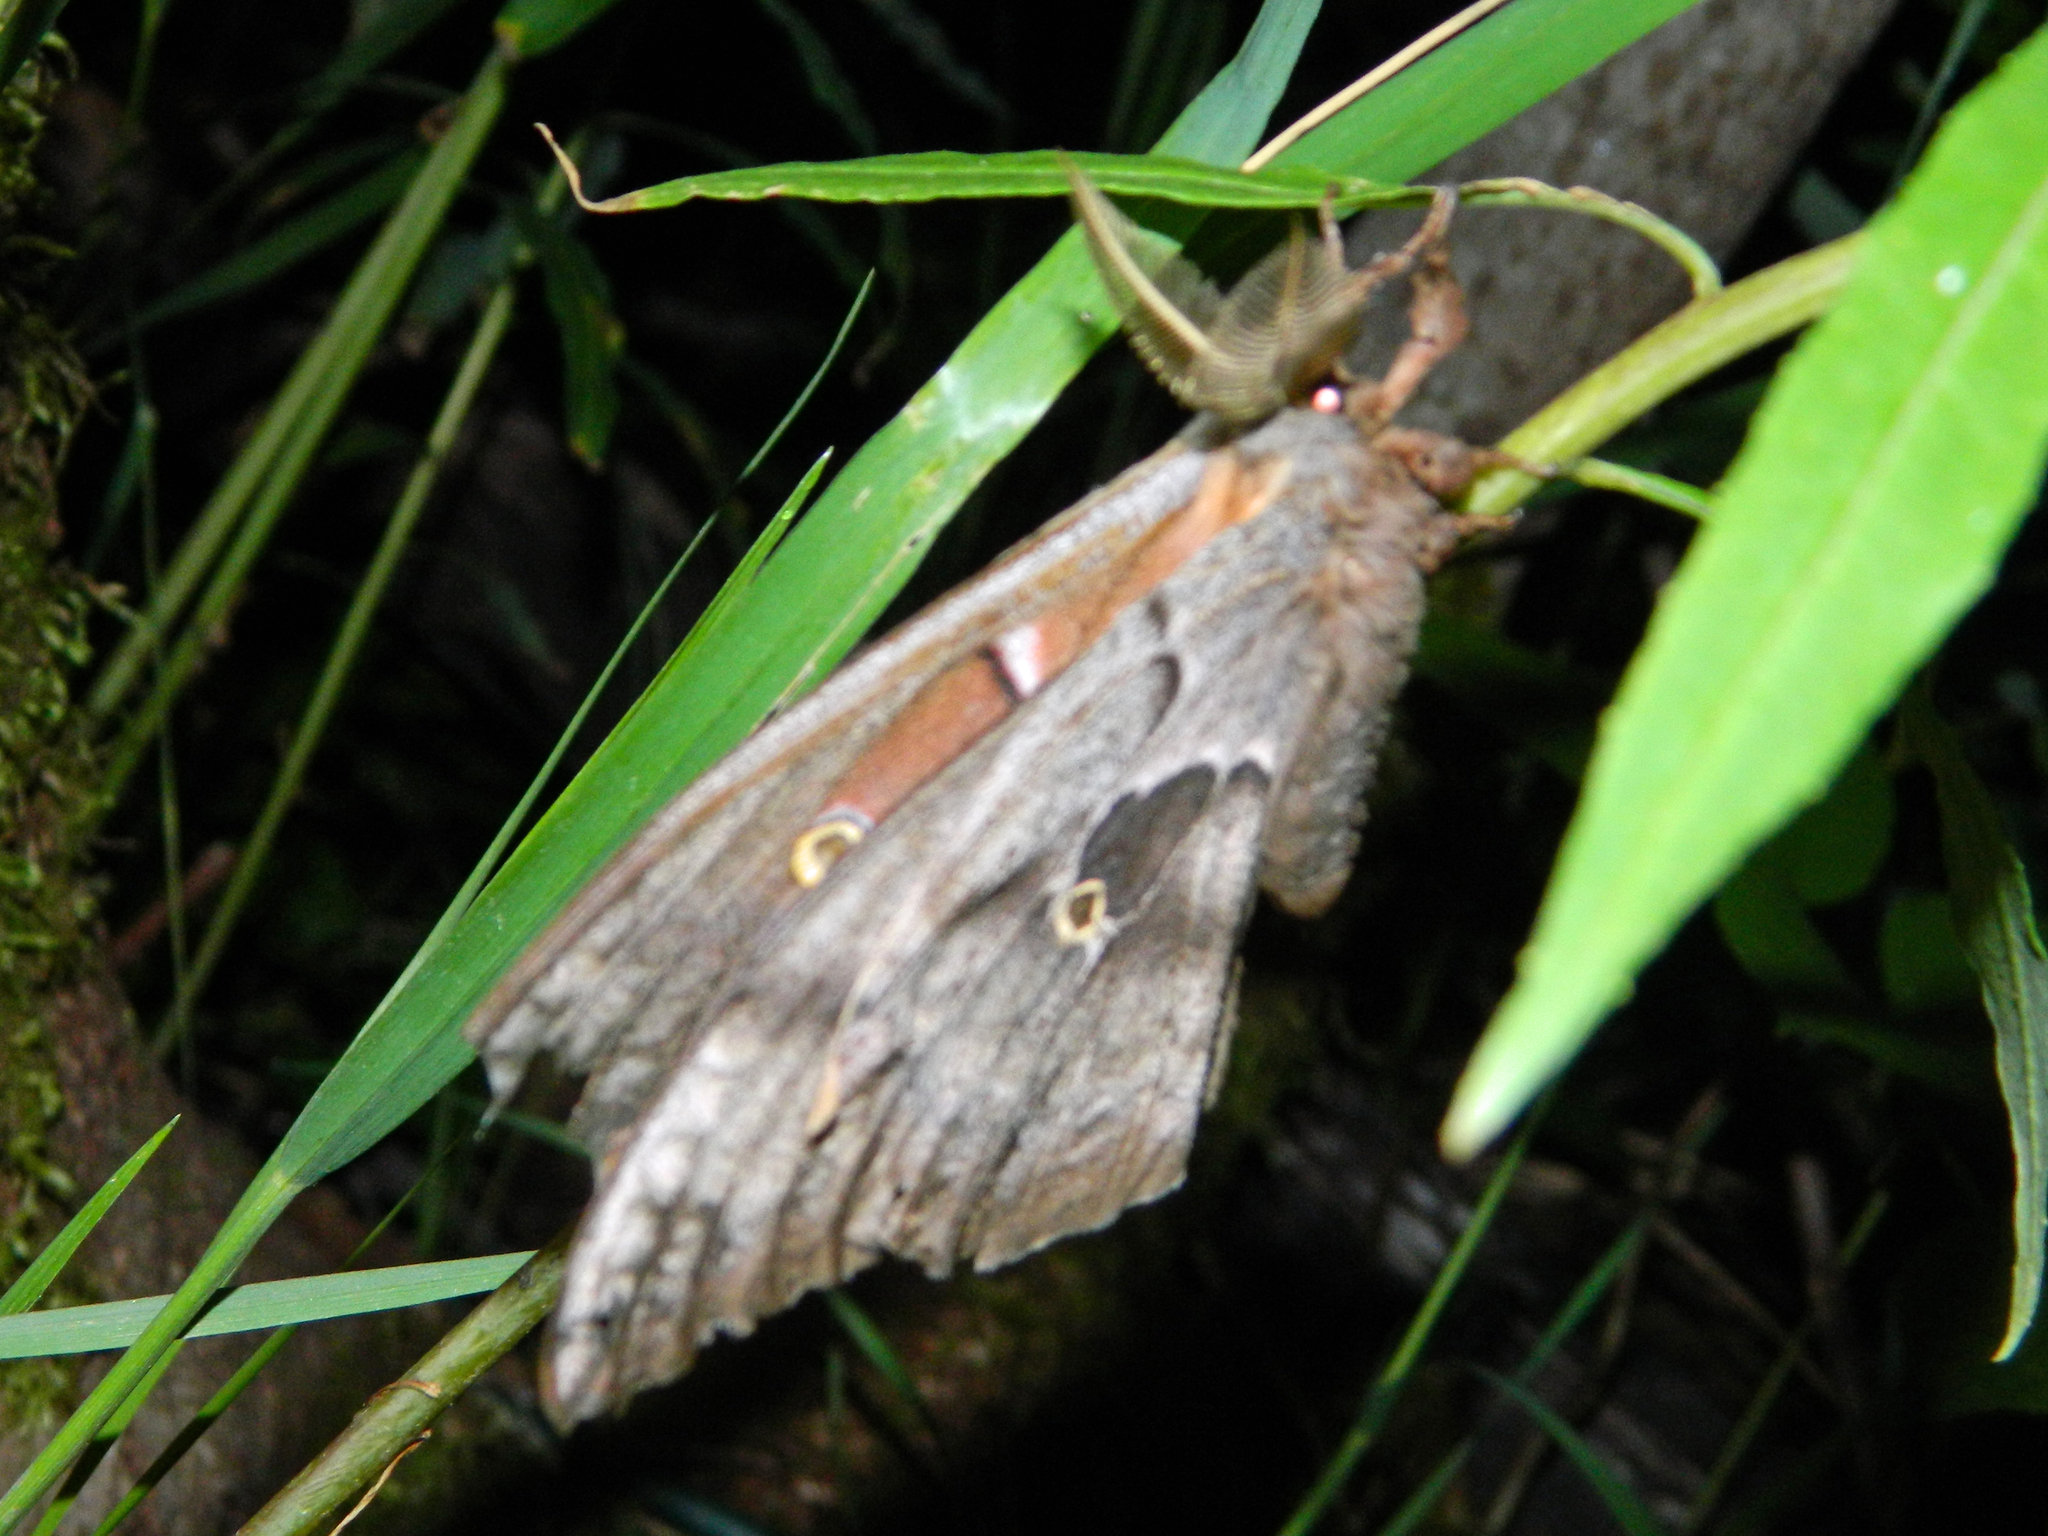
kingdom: Animalia
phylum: Arthropoda
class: Insecta
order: Lepidoptera
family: Saturniidae
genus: Antheraea
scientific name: Antheraea polyphemus
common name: Polyphemus moth
